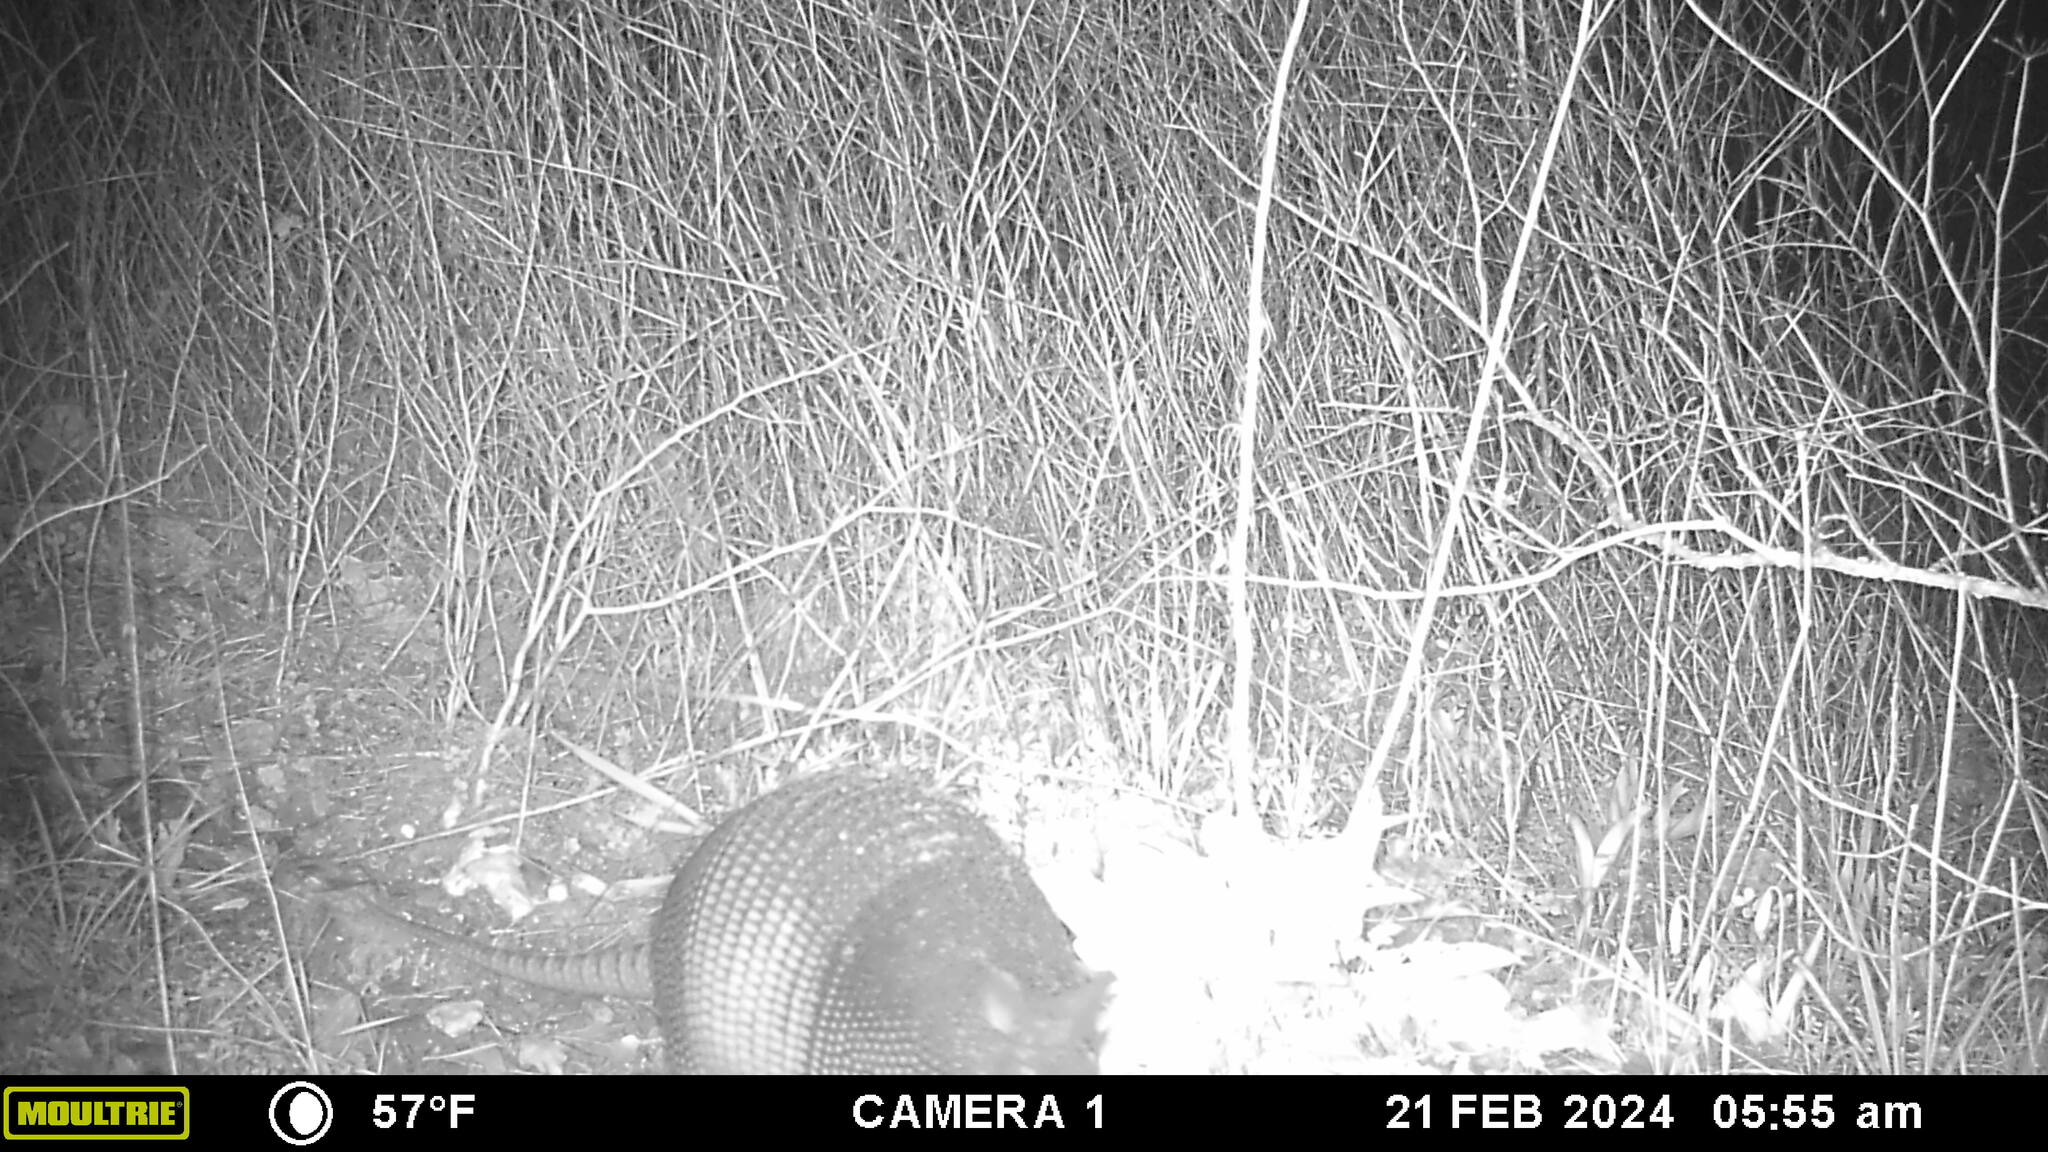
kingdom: Animalia
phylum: Chordata
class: Mammalia
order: Cingulata
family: Dasypodidae
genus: Dasypus
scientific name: Dasypus novemcinctus
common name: Nine-banded armadillo
